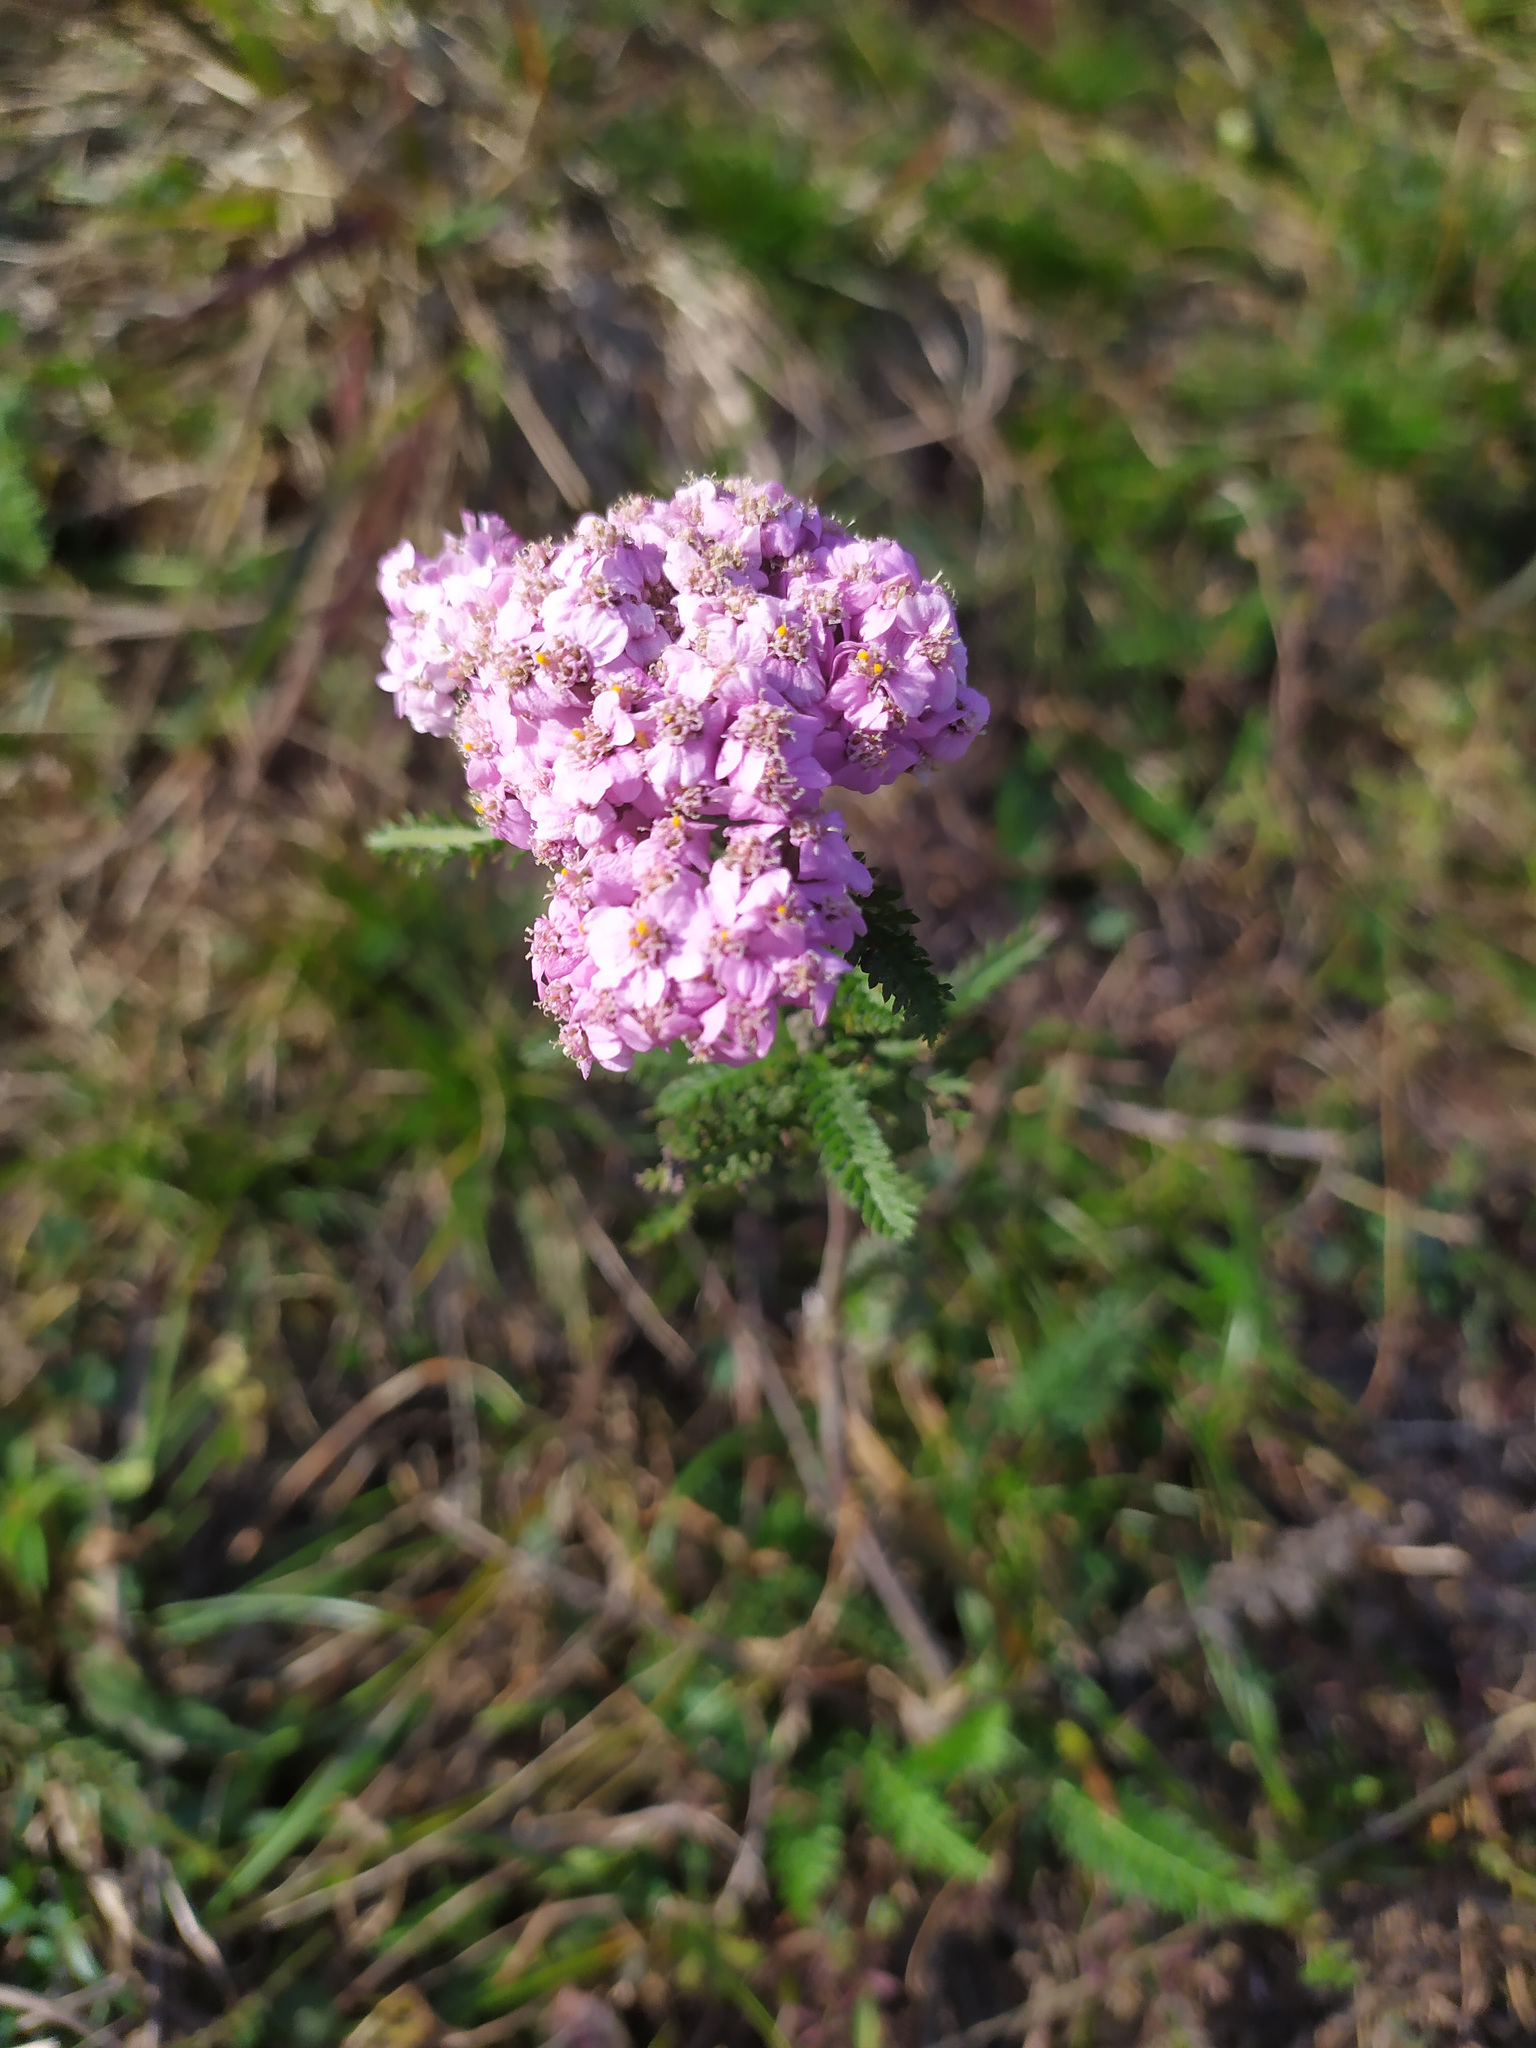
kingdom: Plantae
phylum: Tracheophyta
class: Magnoliopsida
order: Asterales
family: Asteraceae
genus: Achillea
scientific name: Achillea asiatica
